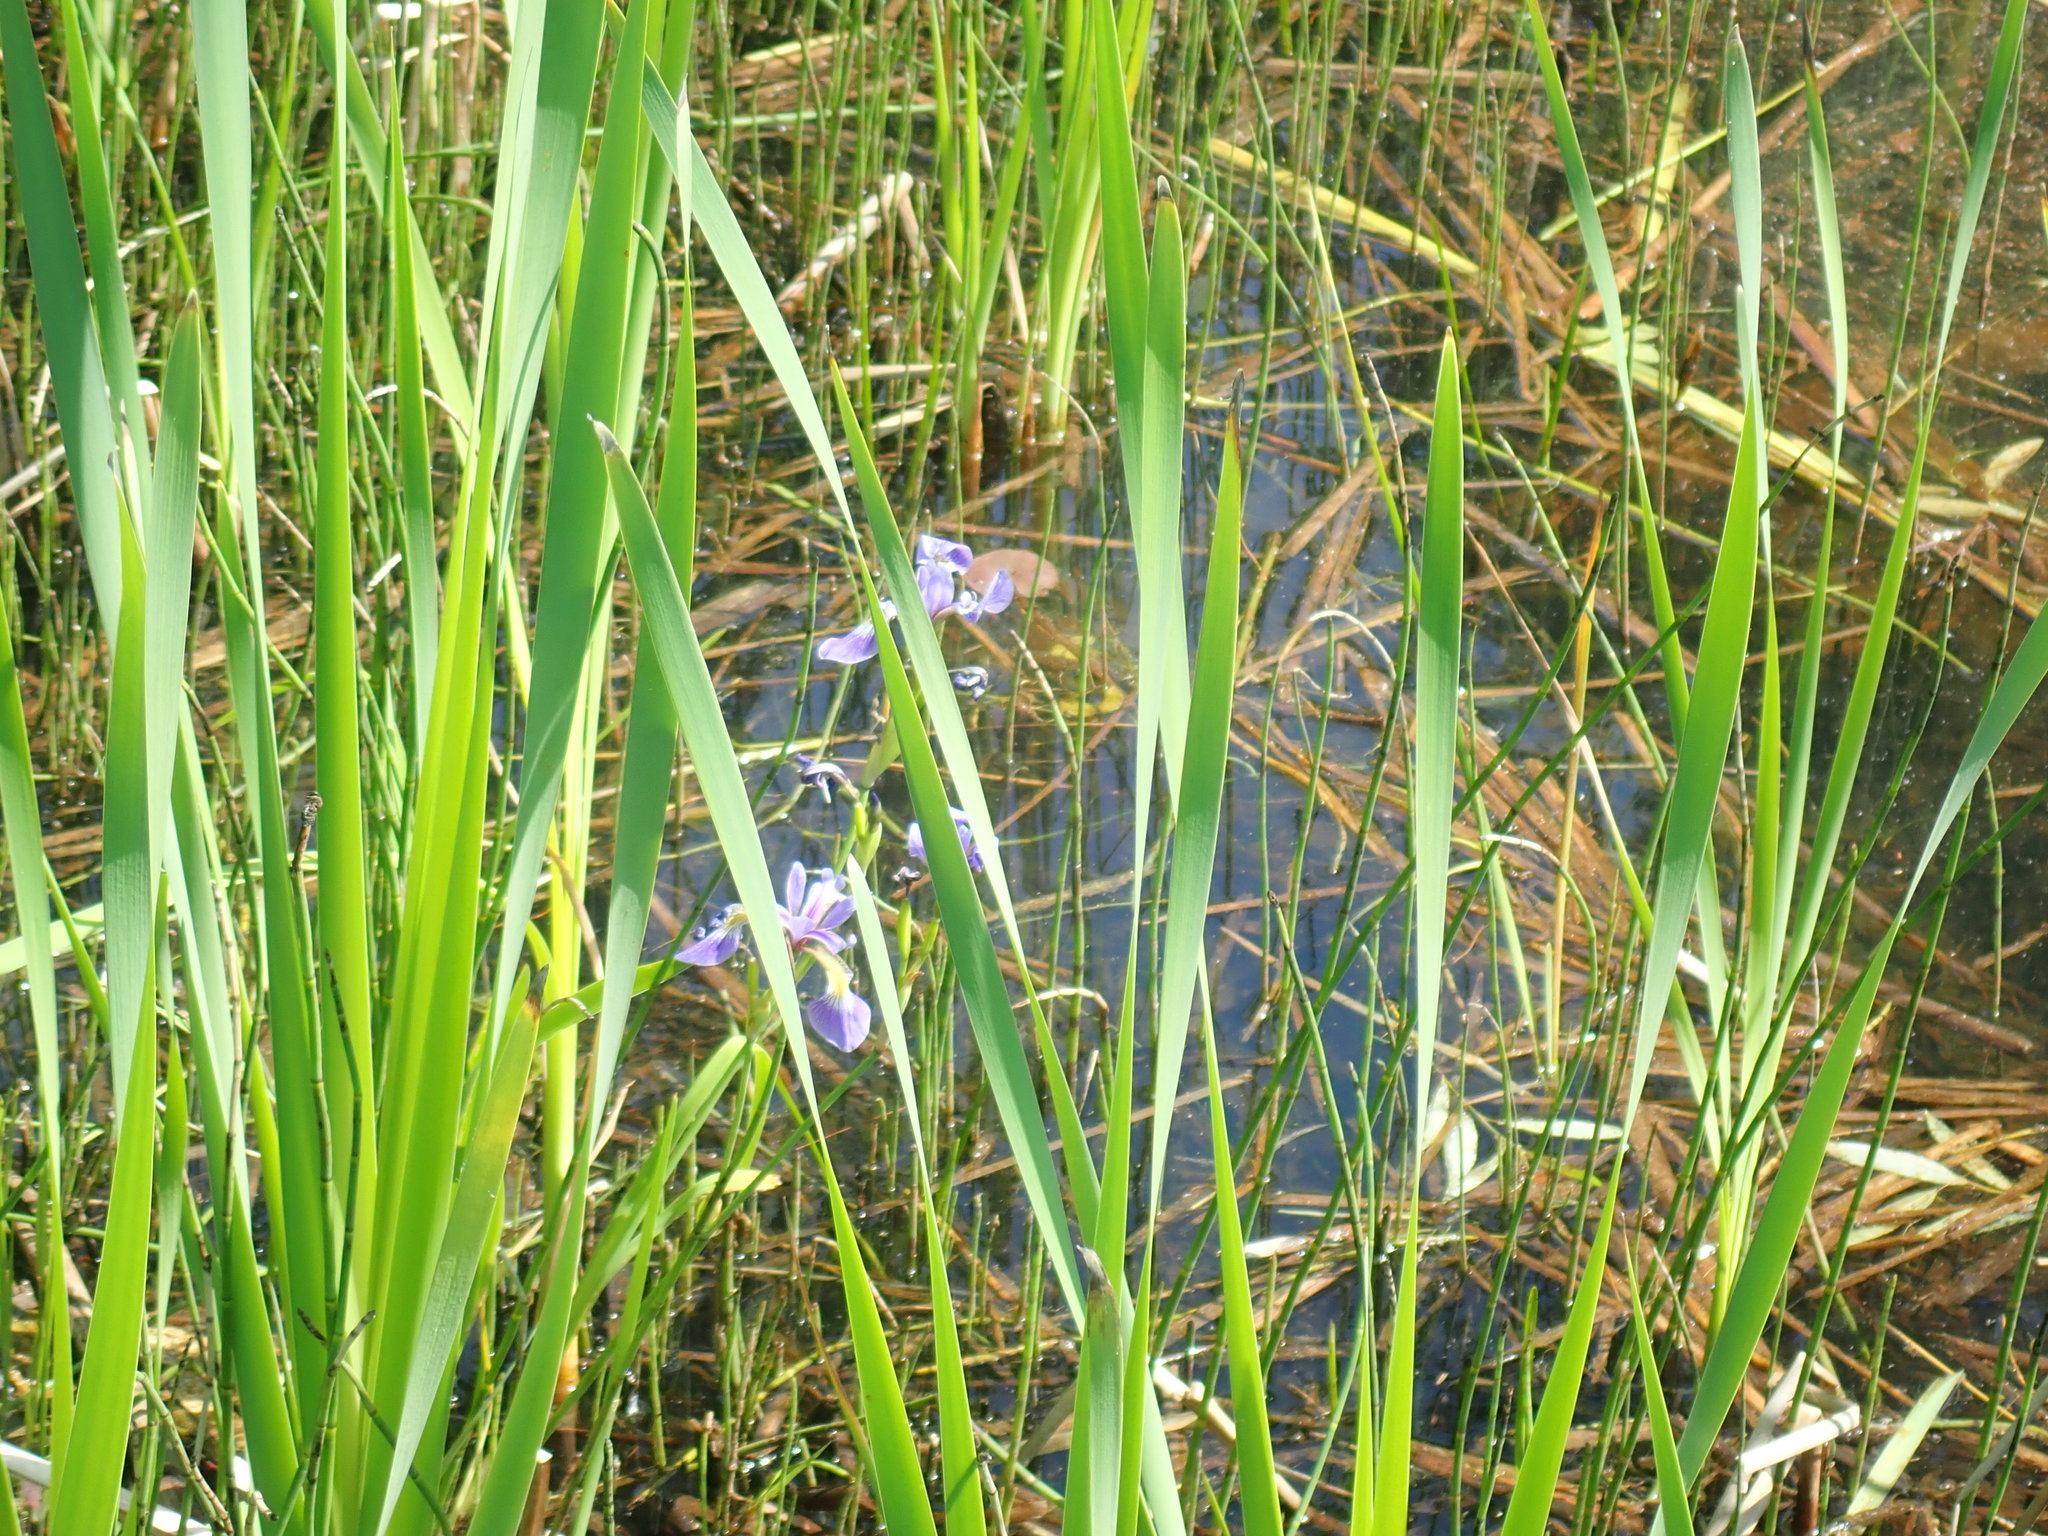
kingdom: Plantae
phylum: Tracheophyta
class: Liliopsida
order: Asparagales
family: Iridaceae
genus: Iris
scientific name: Iris versicolor
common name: Purple iris
